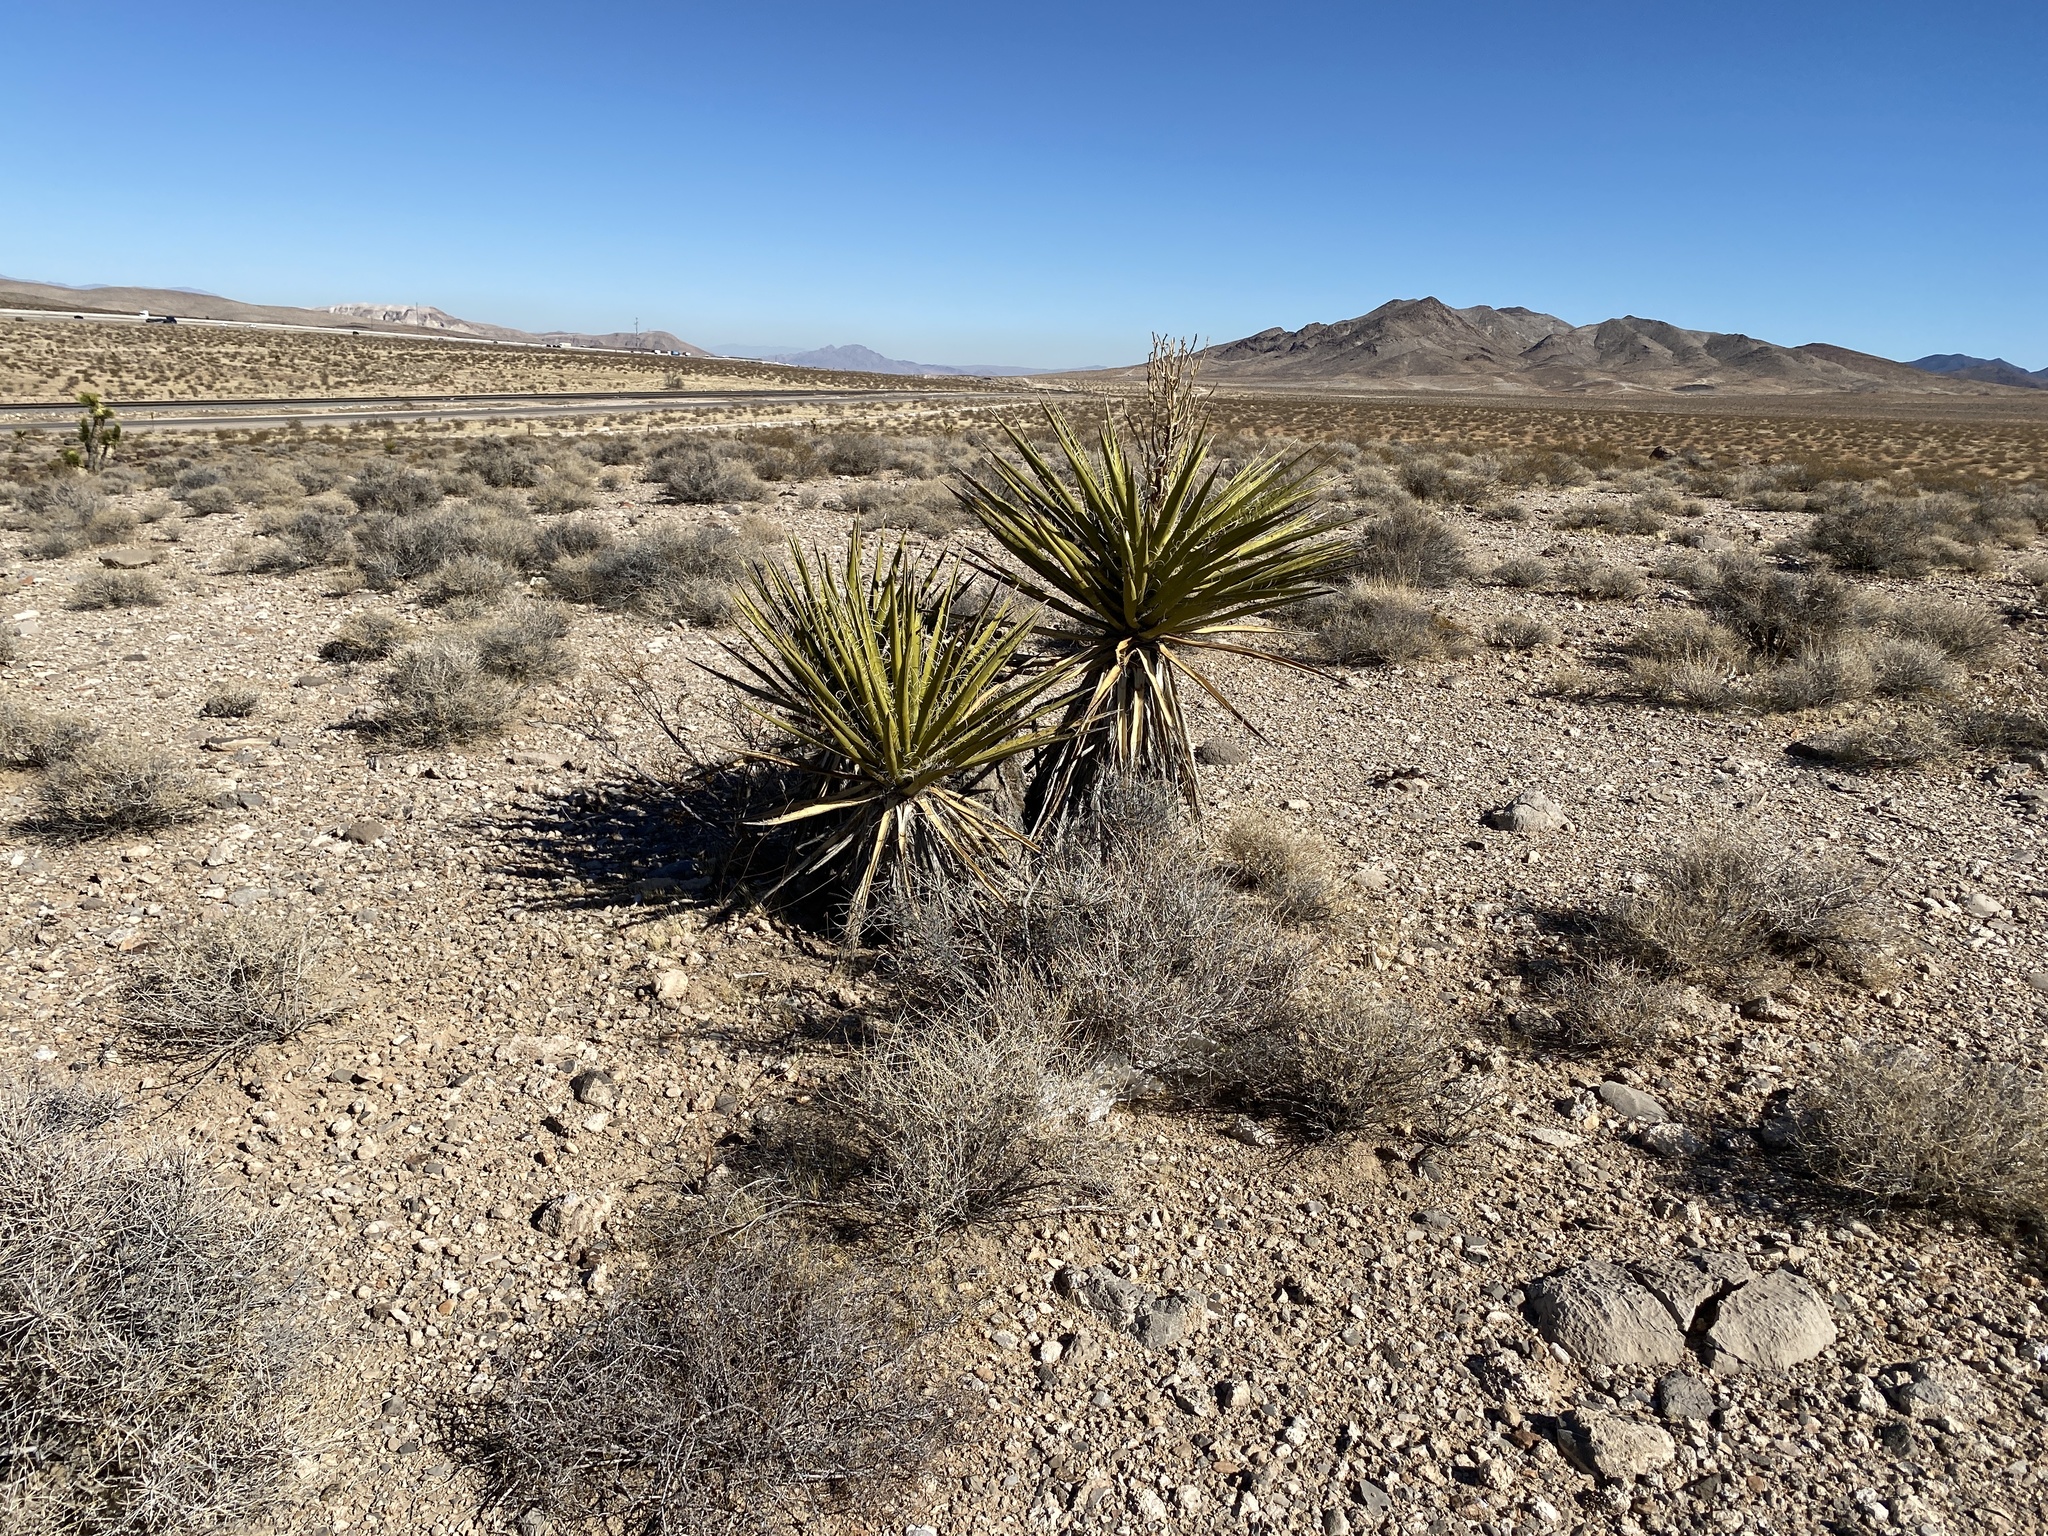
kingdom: Plantae
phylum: Tracheophyta
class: Liliopsida
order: Asparagales
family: Asparagaceae
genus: Yucca
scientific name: Yucca schidigera
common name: Mojave yucca
